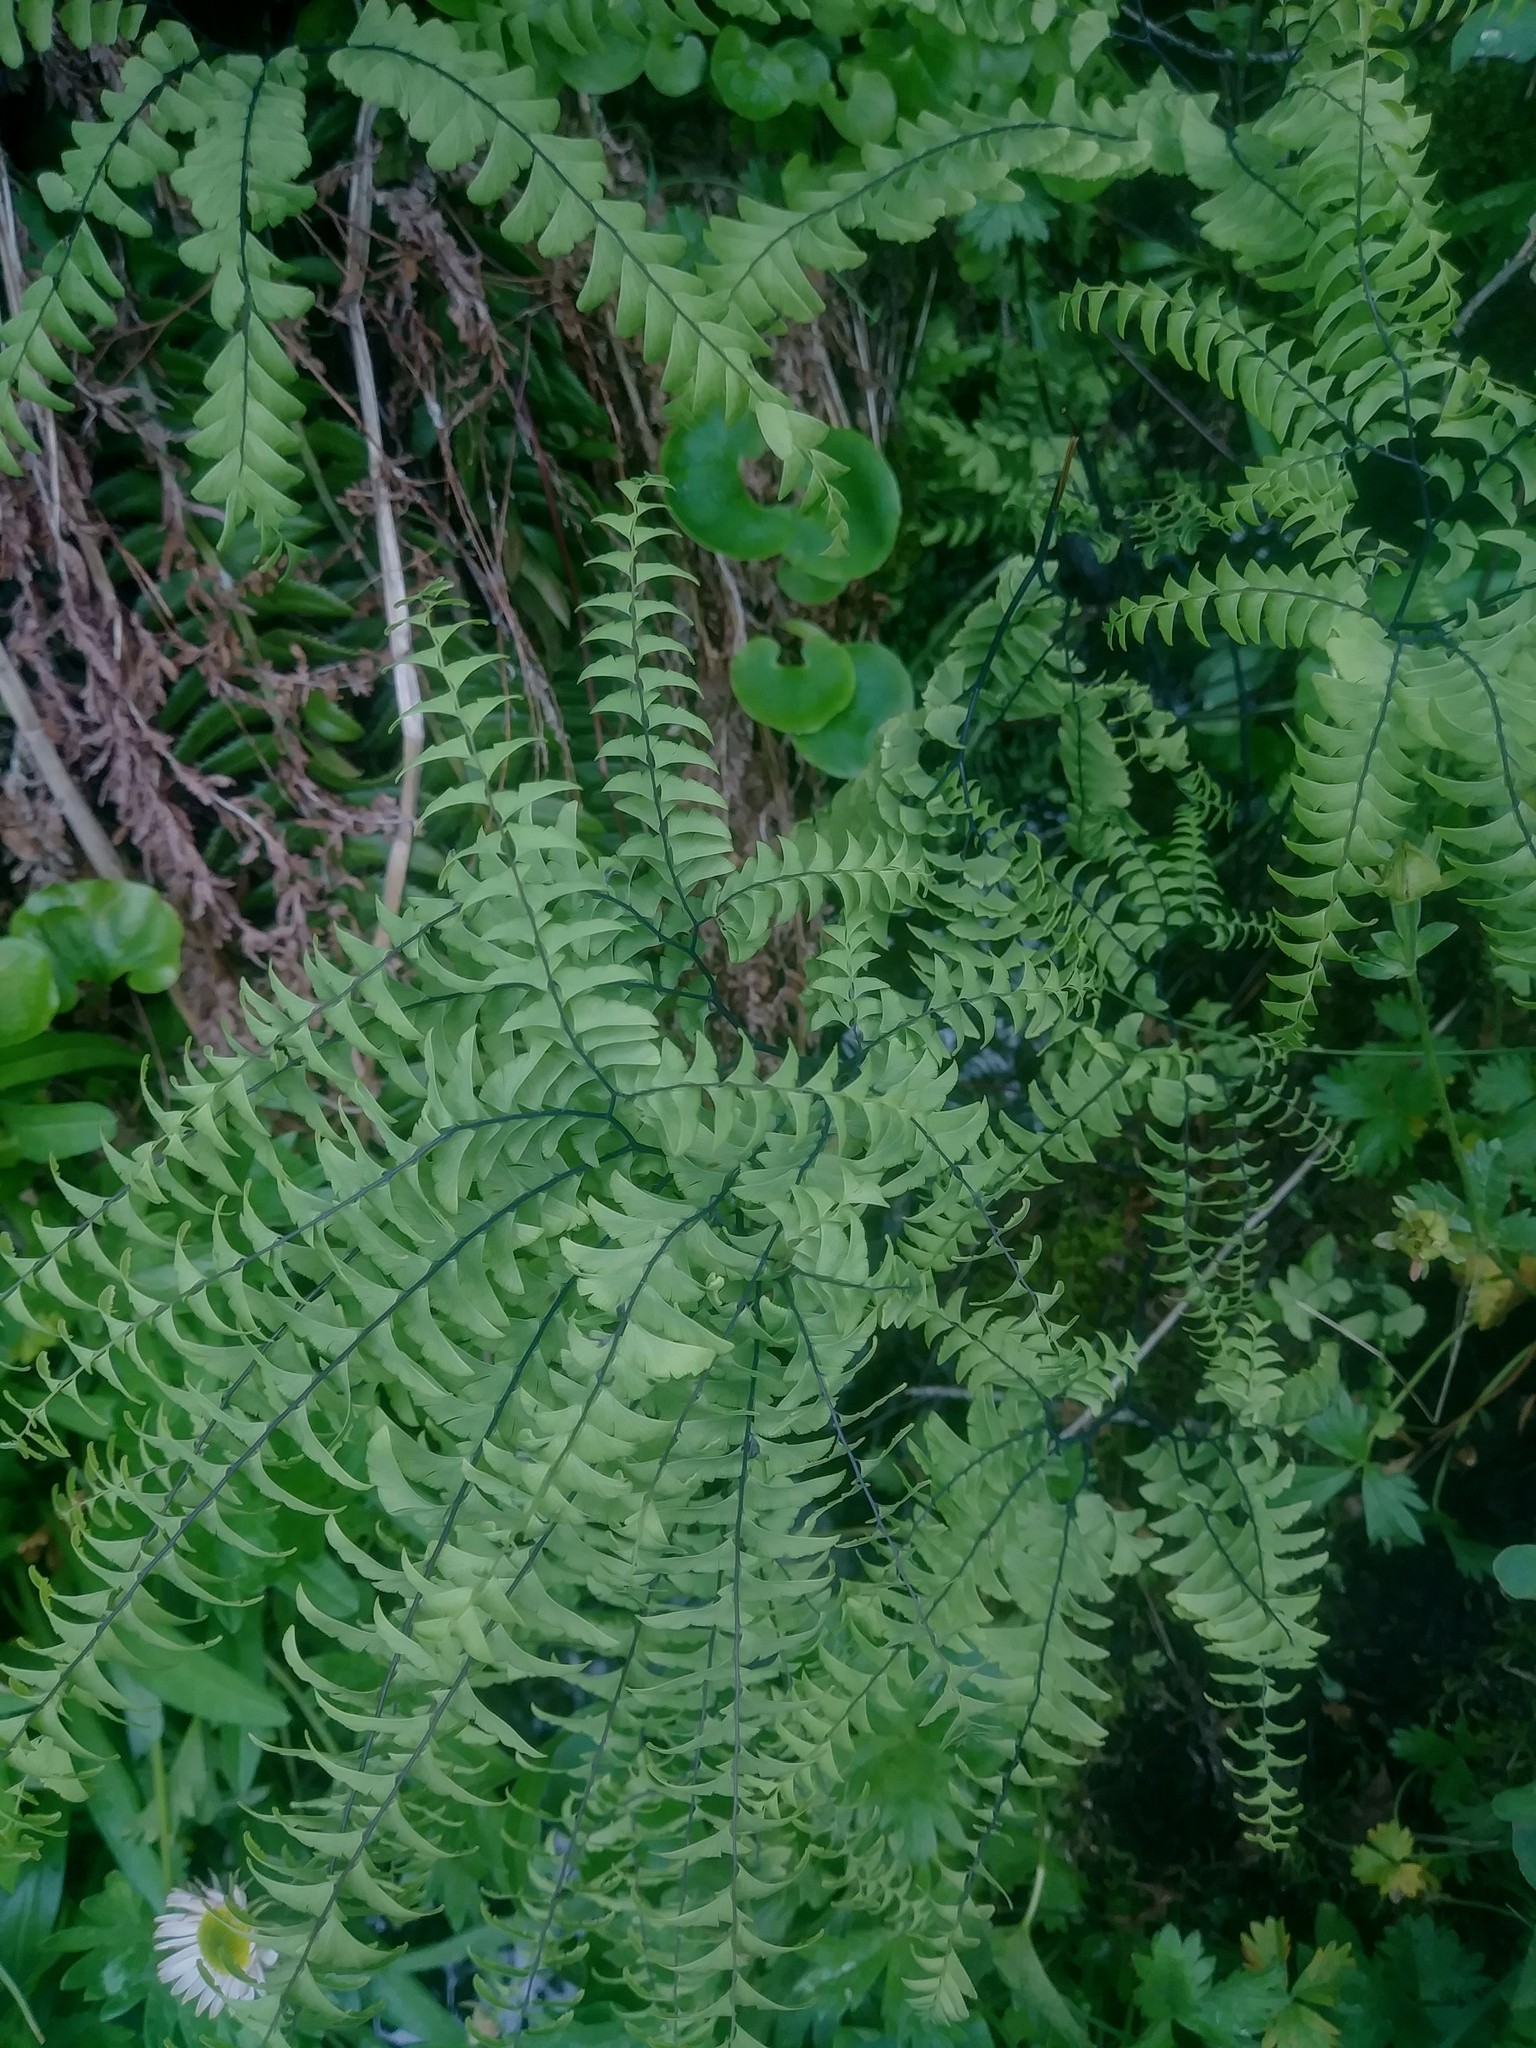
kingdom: Plantae
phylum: Tracheophyta
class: Polypodiopsida
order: Polypodiales
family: Pteridaceae
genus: Adiantum
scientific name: Adiantum aleuticum
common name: Aleutian maidenhair fern
